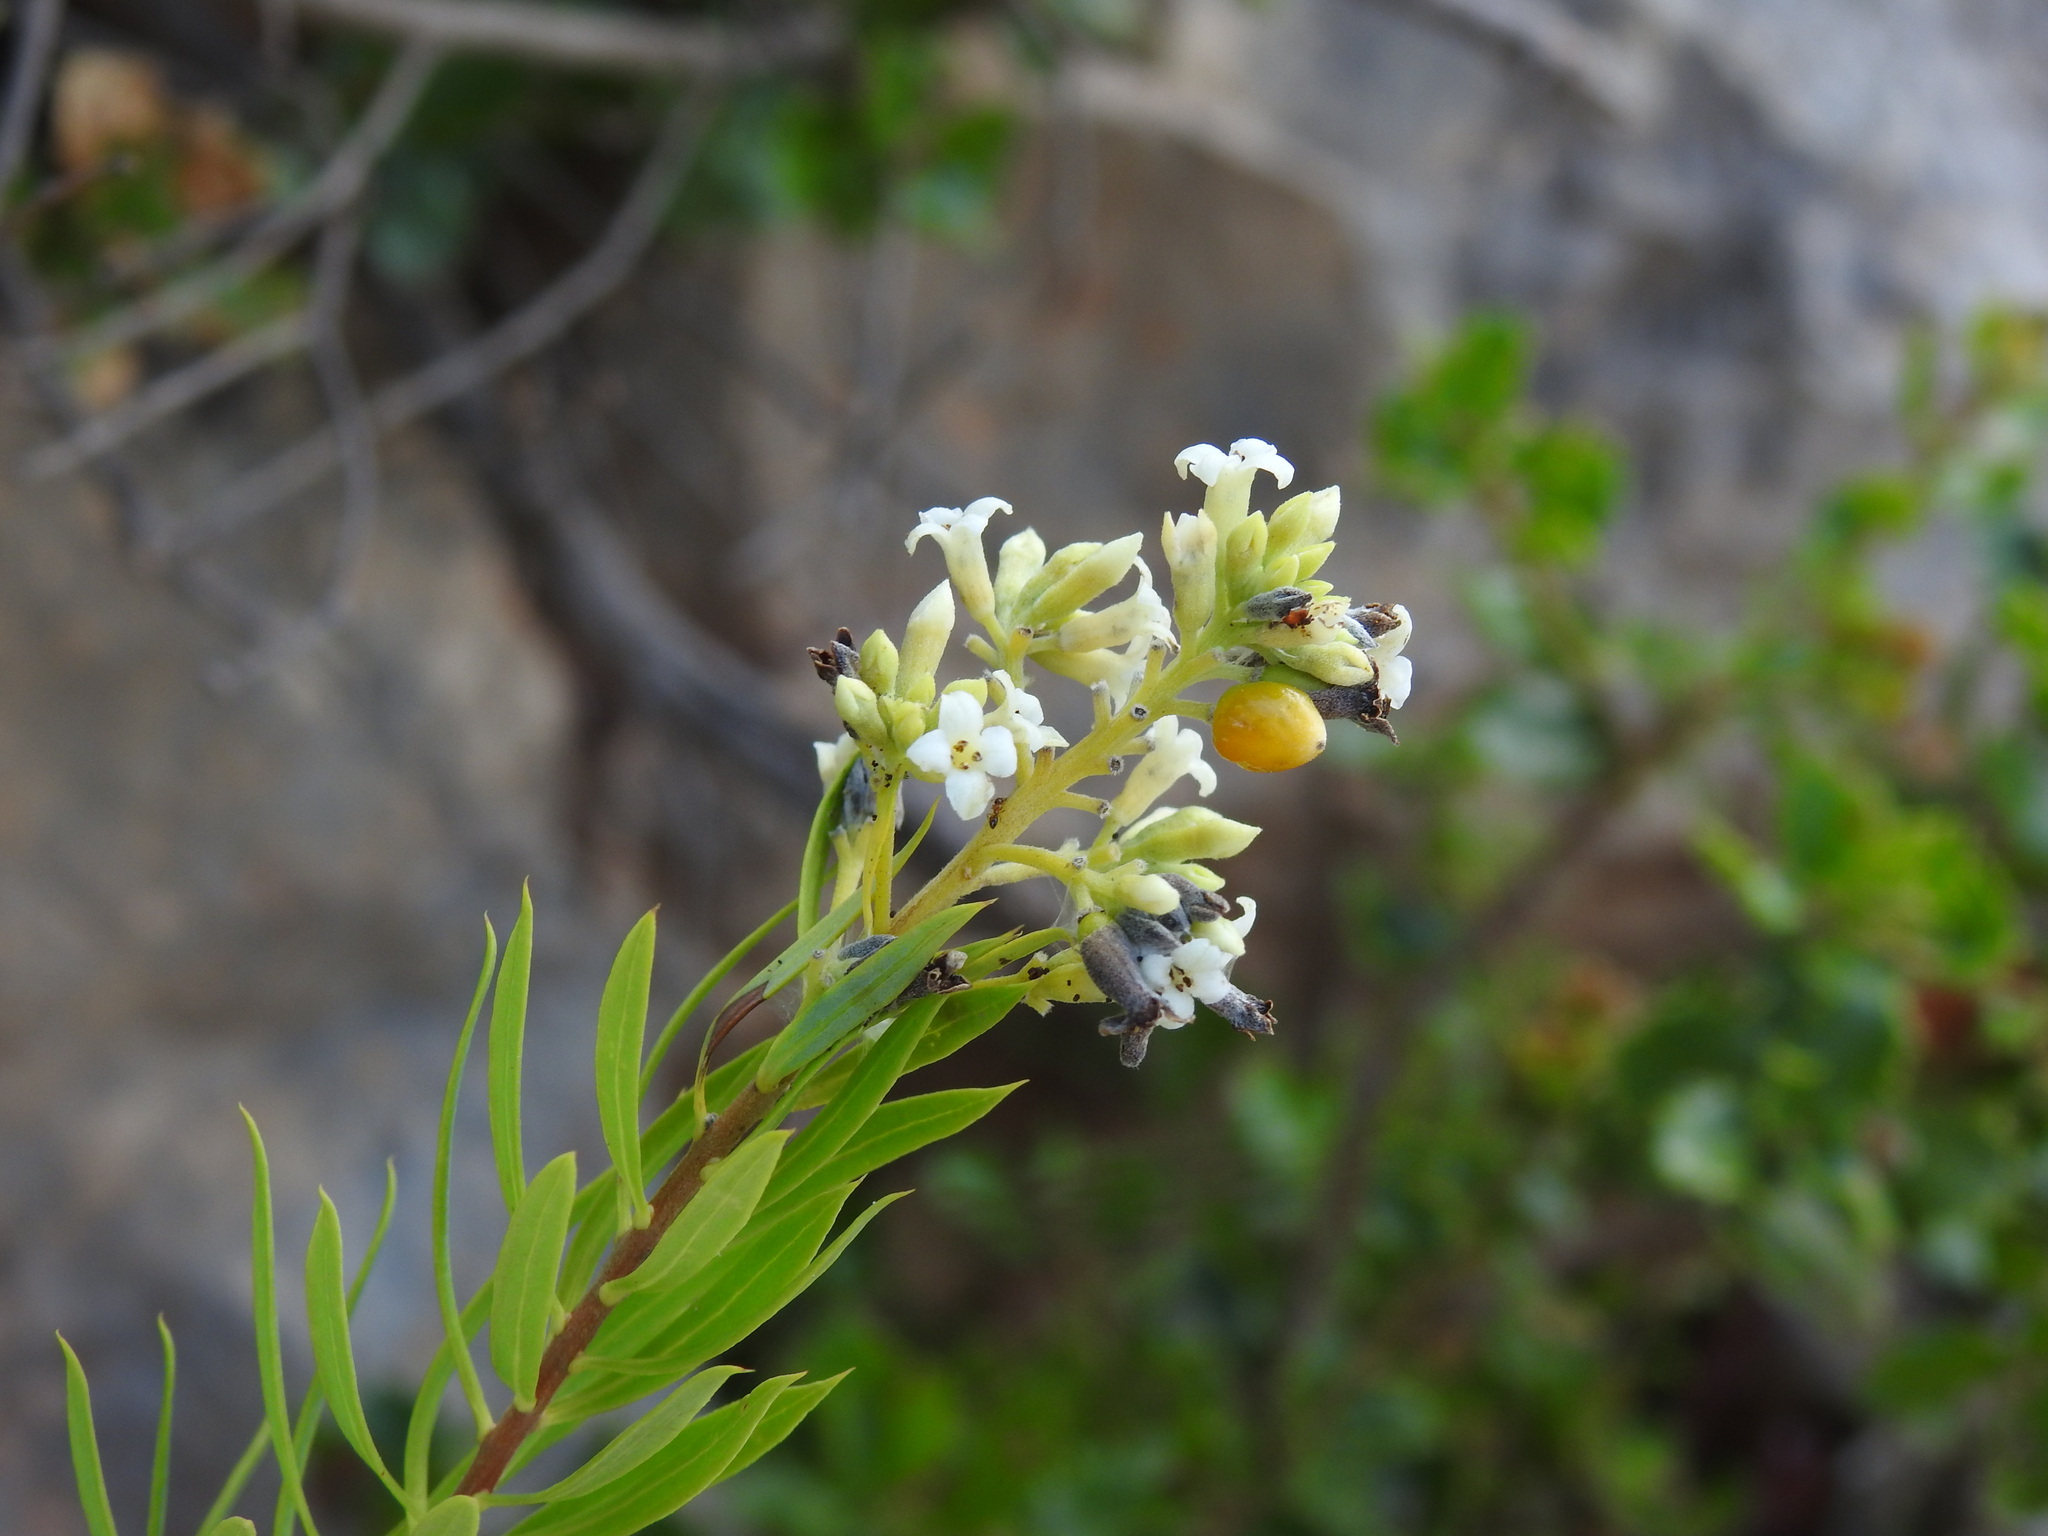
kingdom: Plantae
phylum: Tracheophyta
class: Magnoliopsida
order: Malvales
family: Thymelaeaceae
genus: Daphne
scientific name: Daphne gnidium
